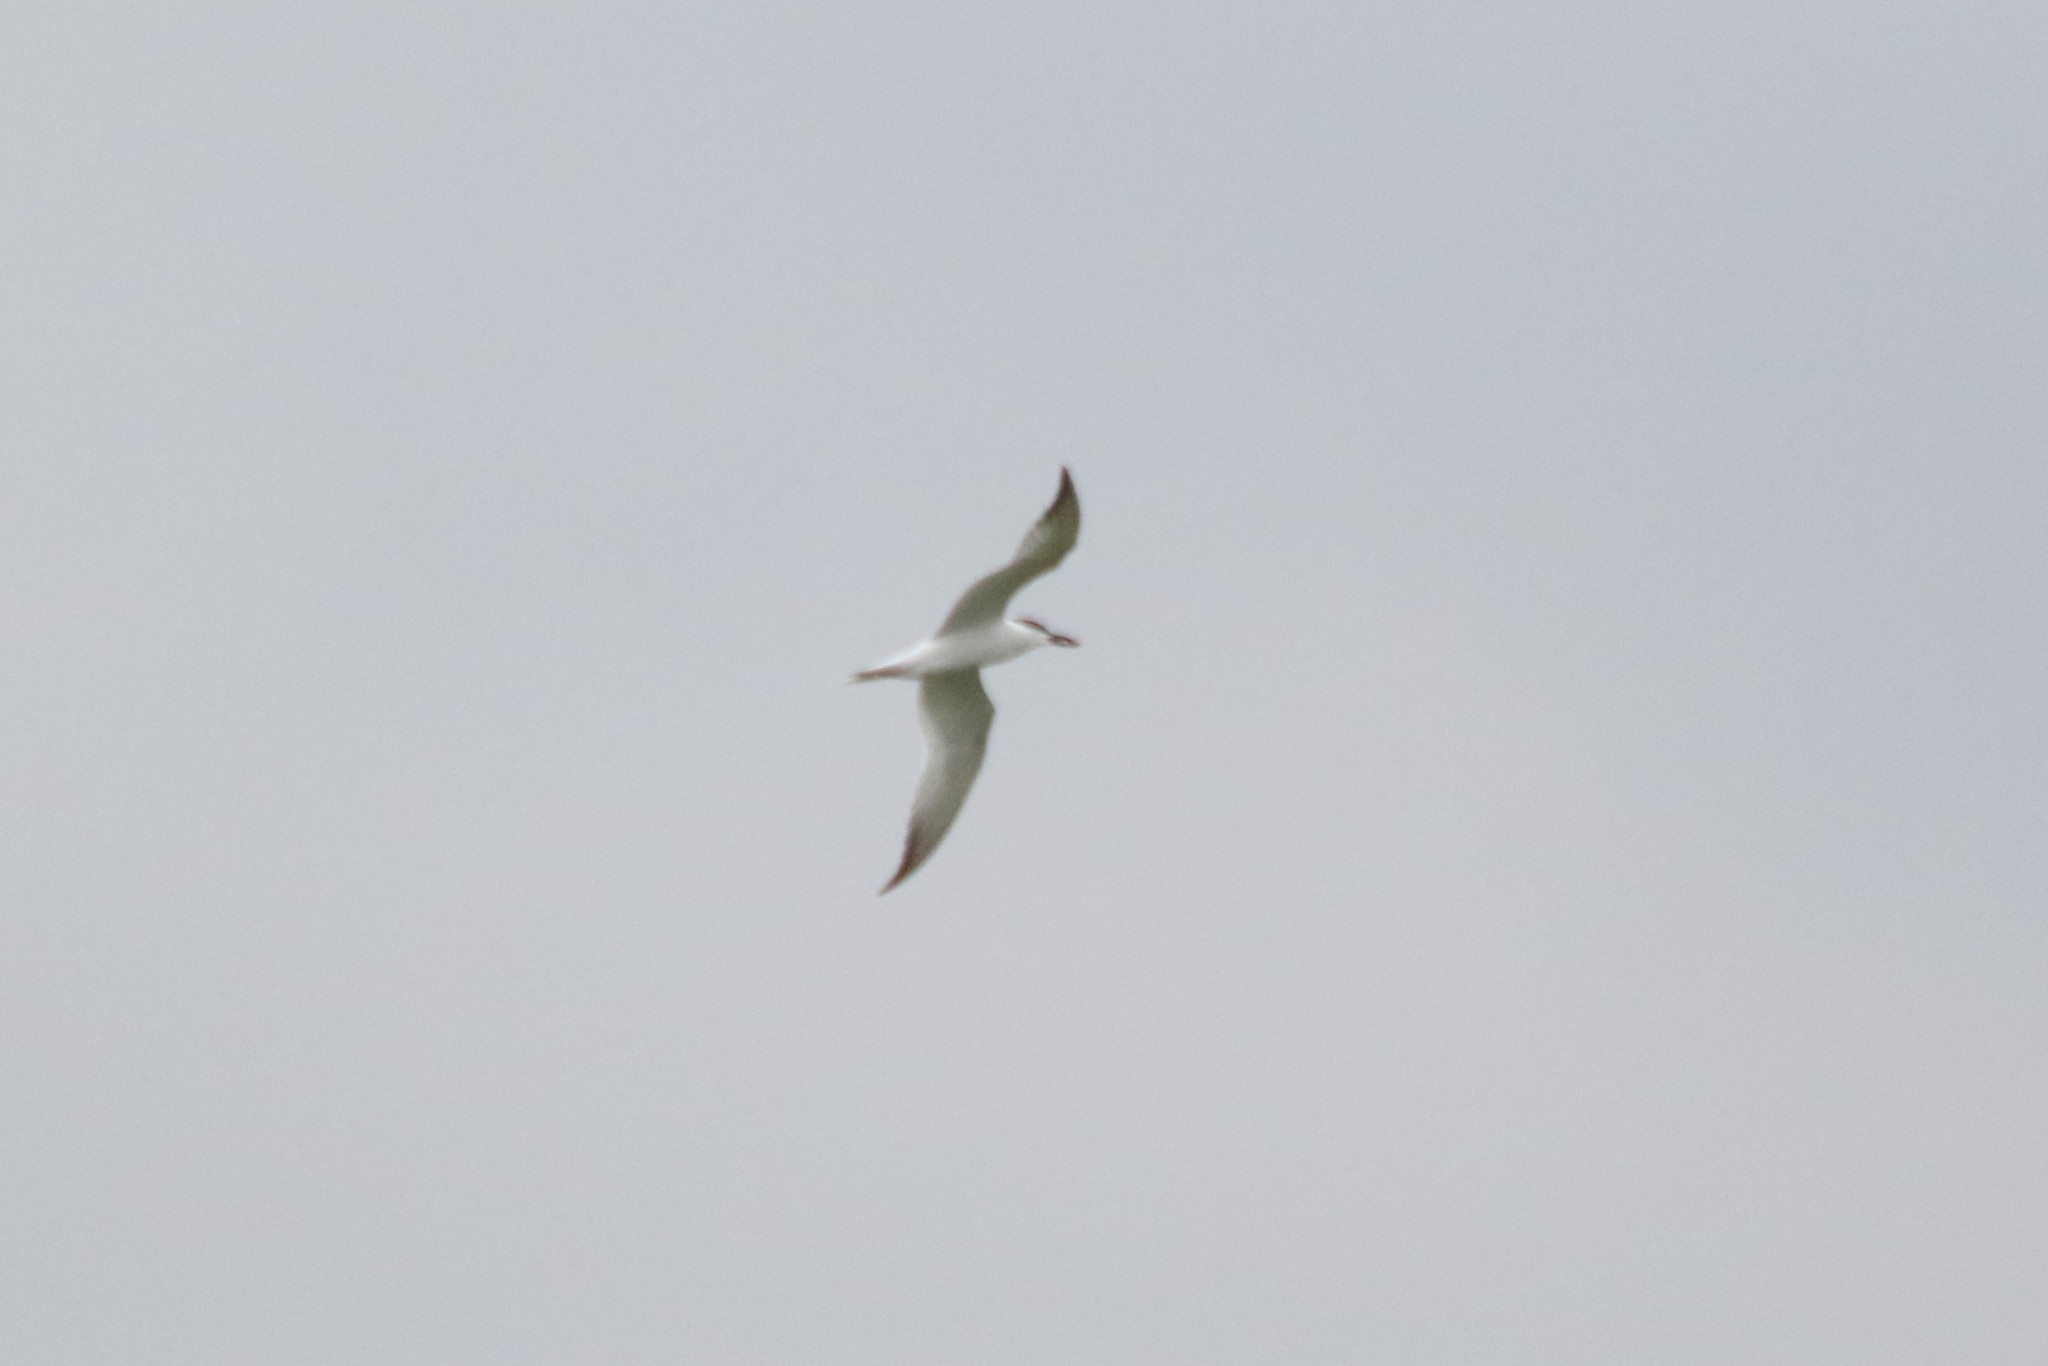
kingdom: Animalia
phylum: Chordata
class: Aves
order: Charadriiformes
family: Laridae
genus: Gelochelidon
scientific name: Gelochelidon nilotica
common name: Gull-billed tern
